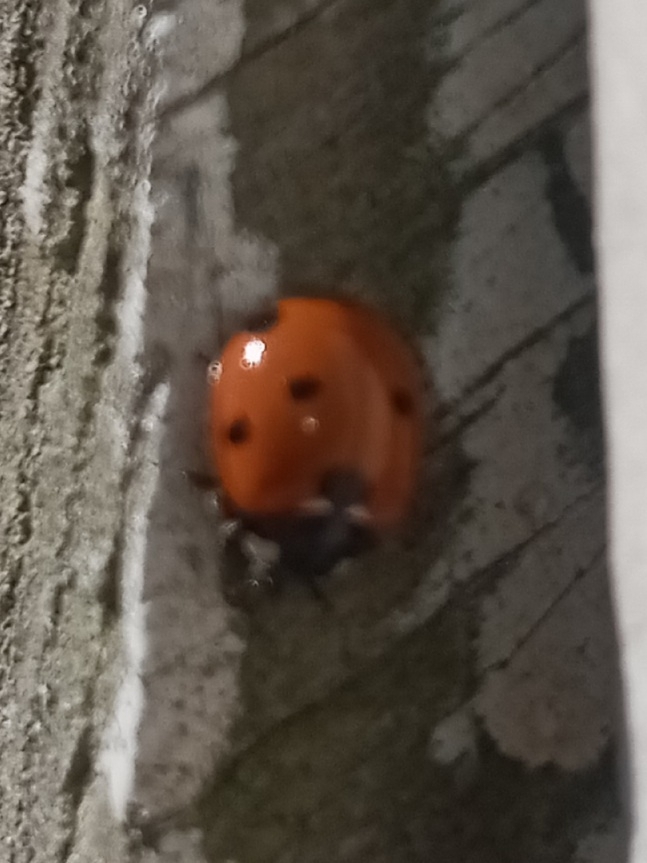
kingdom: Animalia
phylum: Arthropoda
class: Insecta
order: Coleoptera
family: Coccinellidae
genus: Coccinella
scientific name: Coccinella septempunctata
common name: Sevenspotted lady beetle
